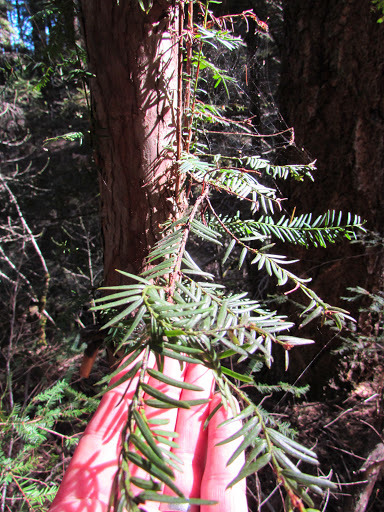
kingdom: Plantae
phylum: Tracheophyta
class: Pinopsida
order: Pinales
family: Taxaceae
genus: Torreya
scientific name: Torreya californica
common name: California torreya
